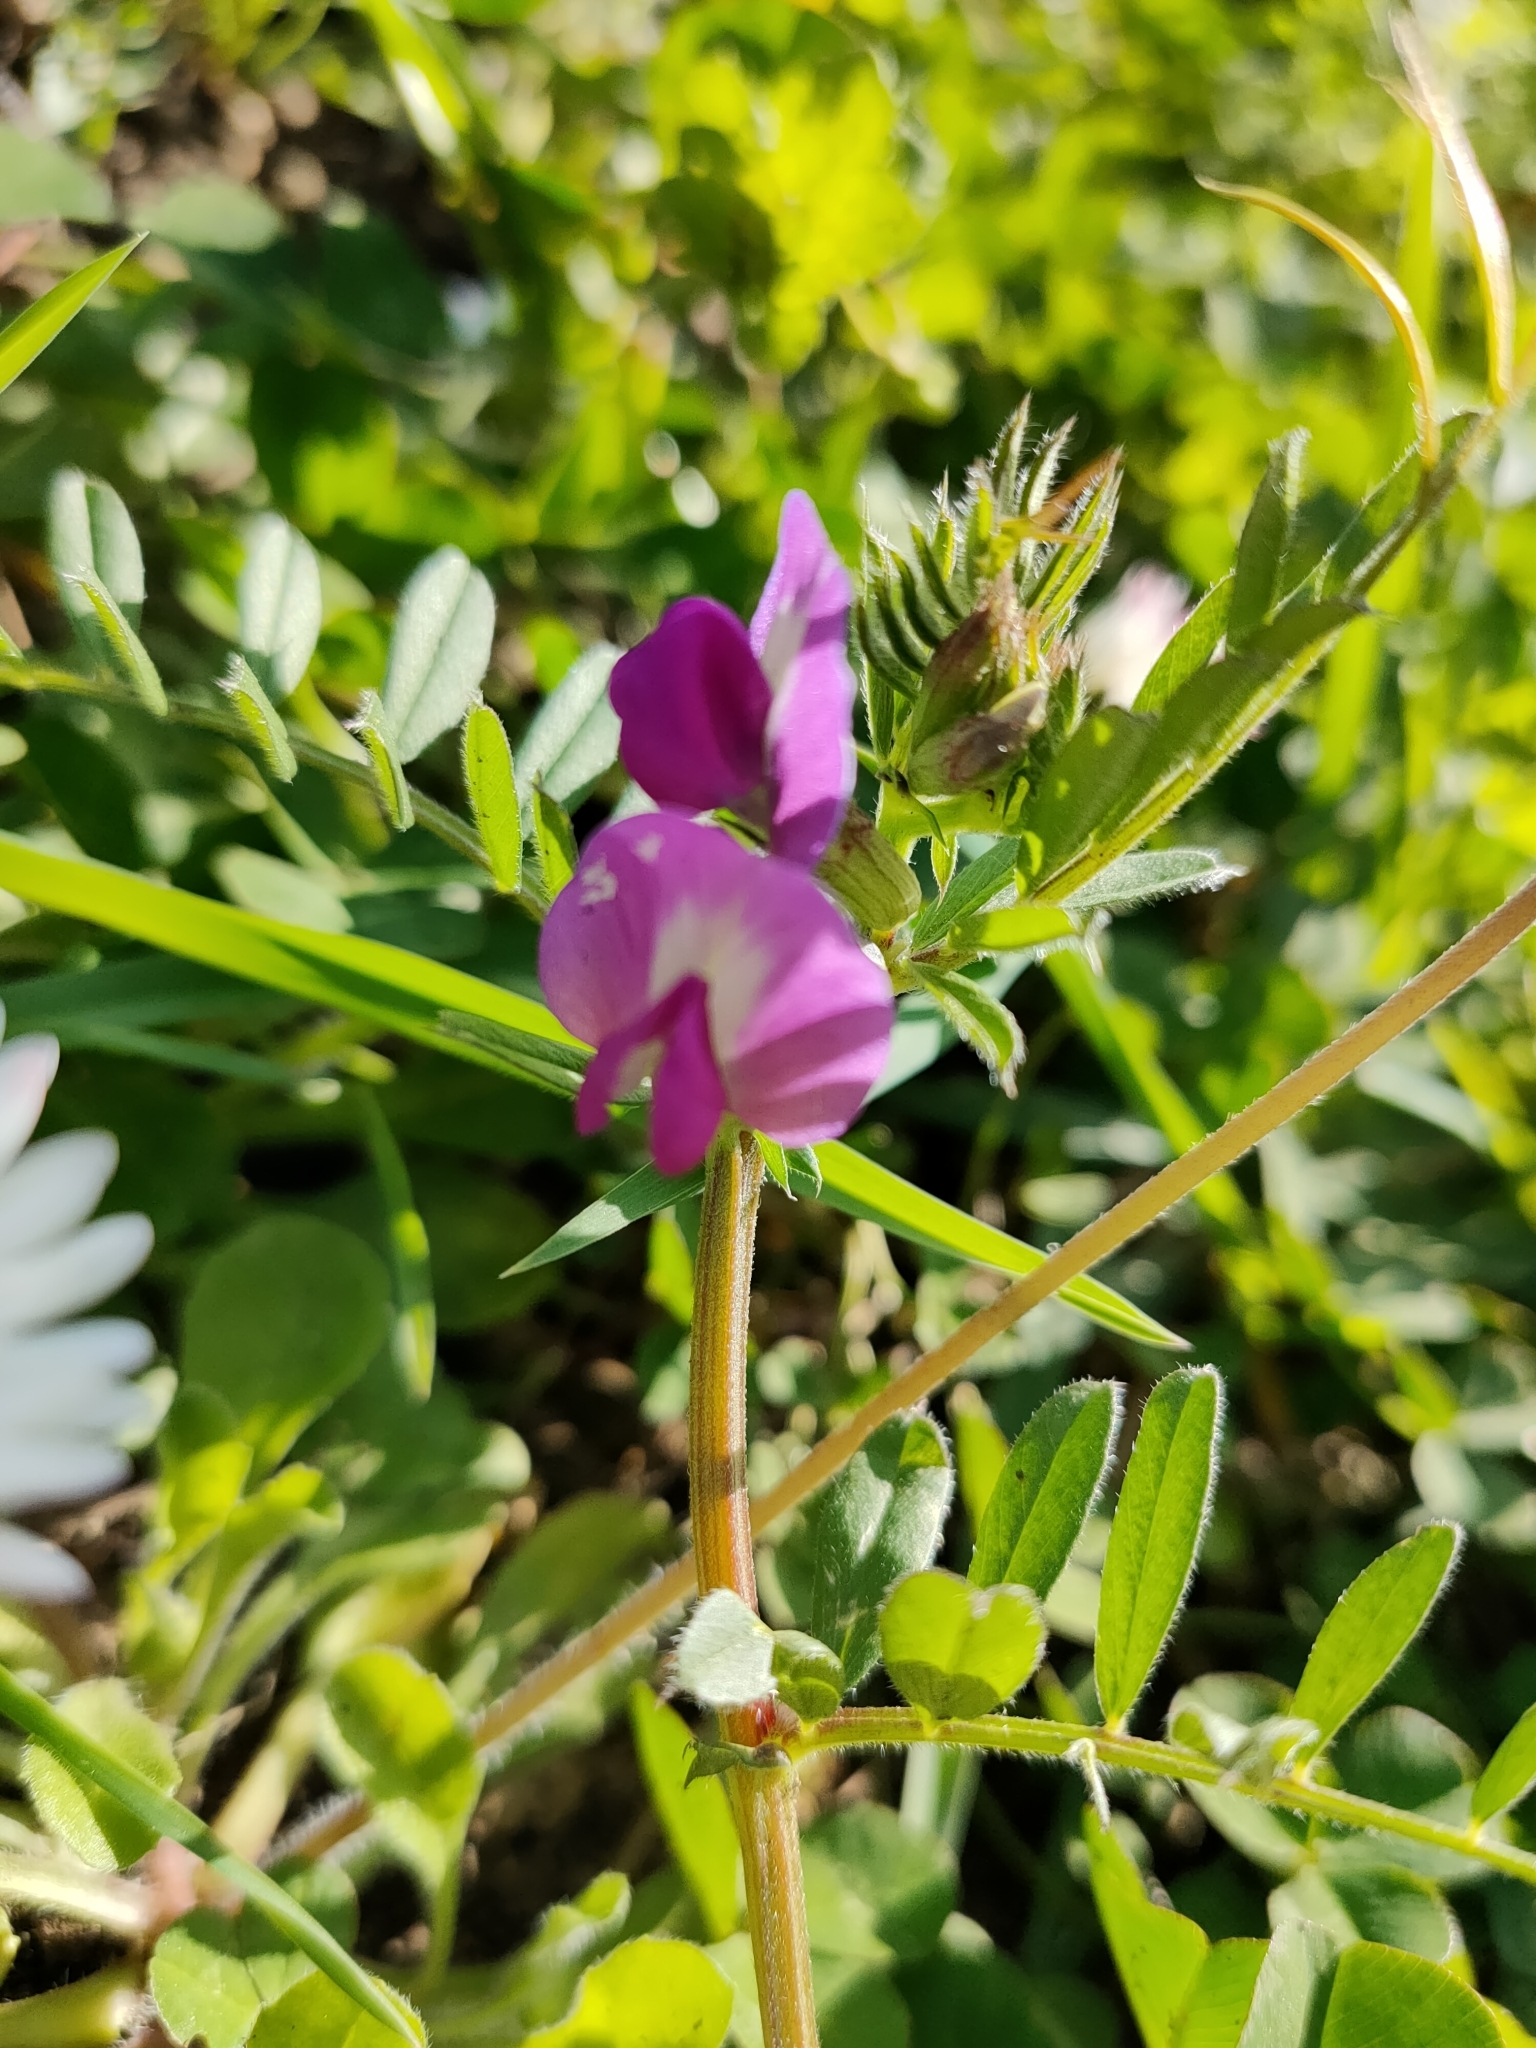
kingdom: Plantae
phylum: Tracheophyta
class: Magnoliopsida
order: Fabales
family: Fabaceae
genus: Vicia
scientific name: Vicia sativa
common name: Garden vetch
